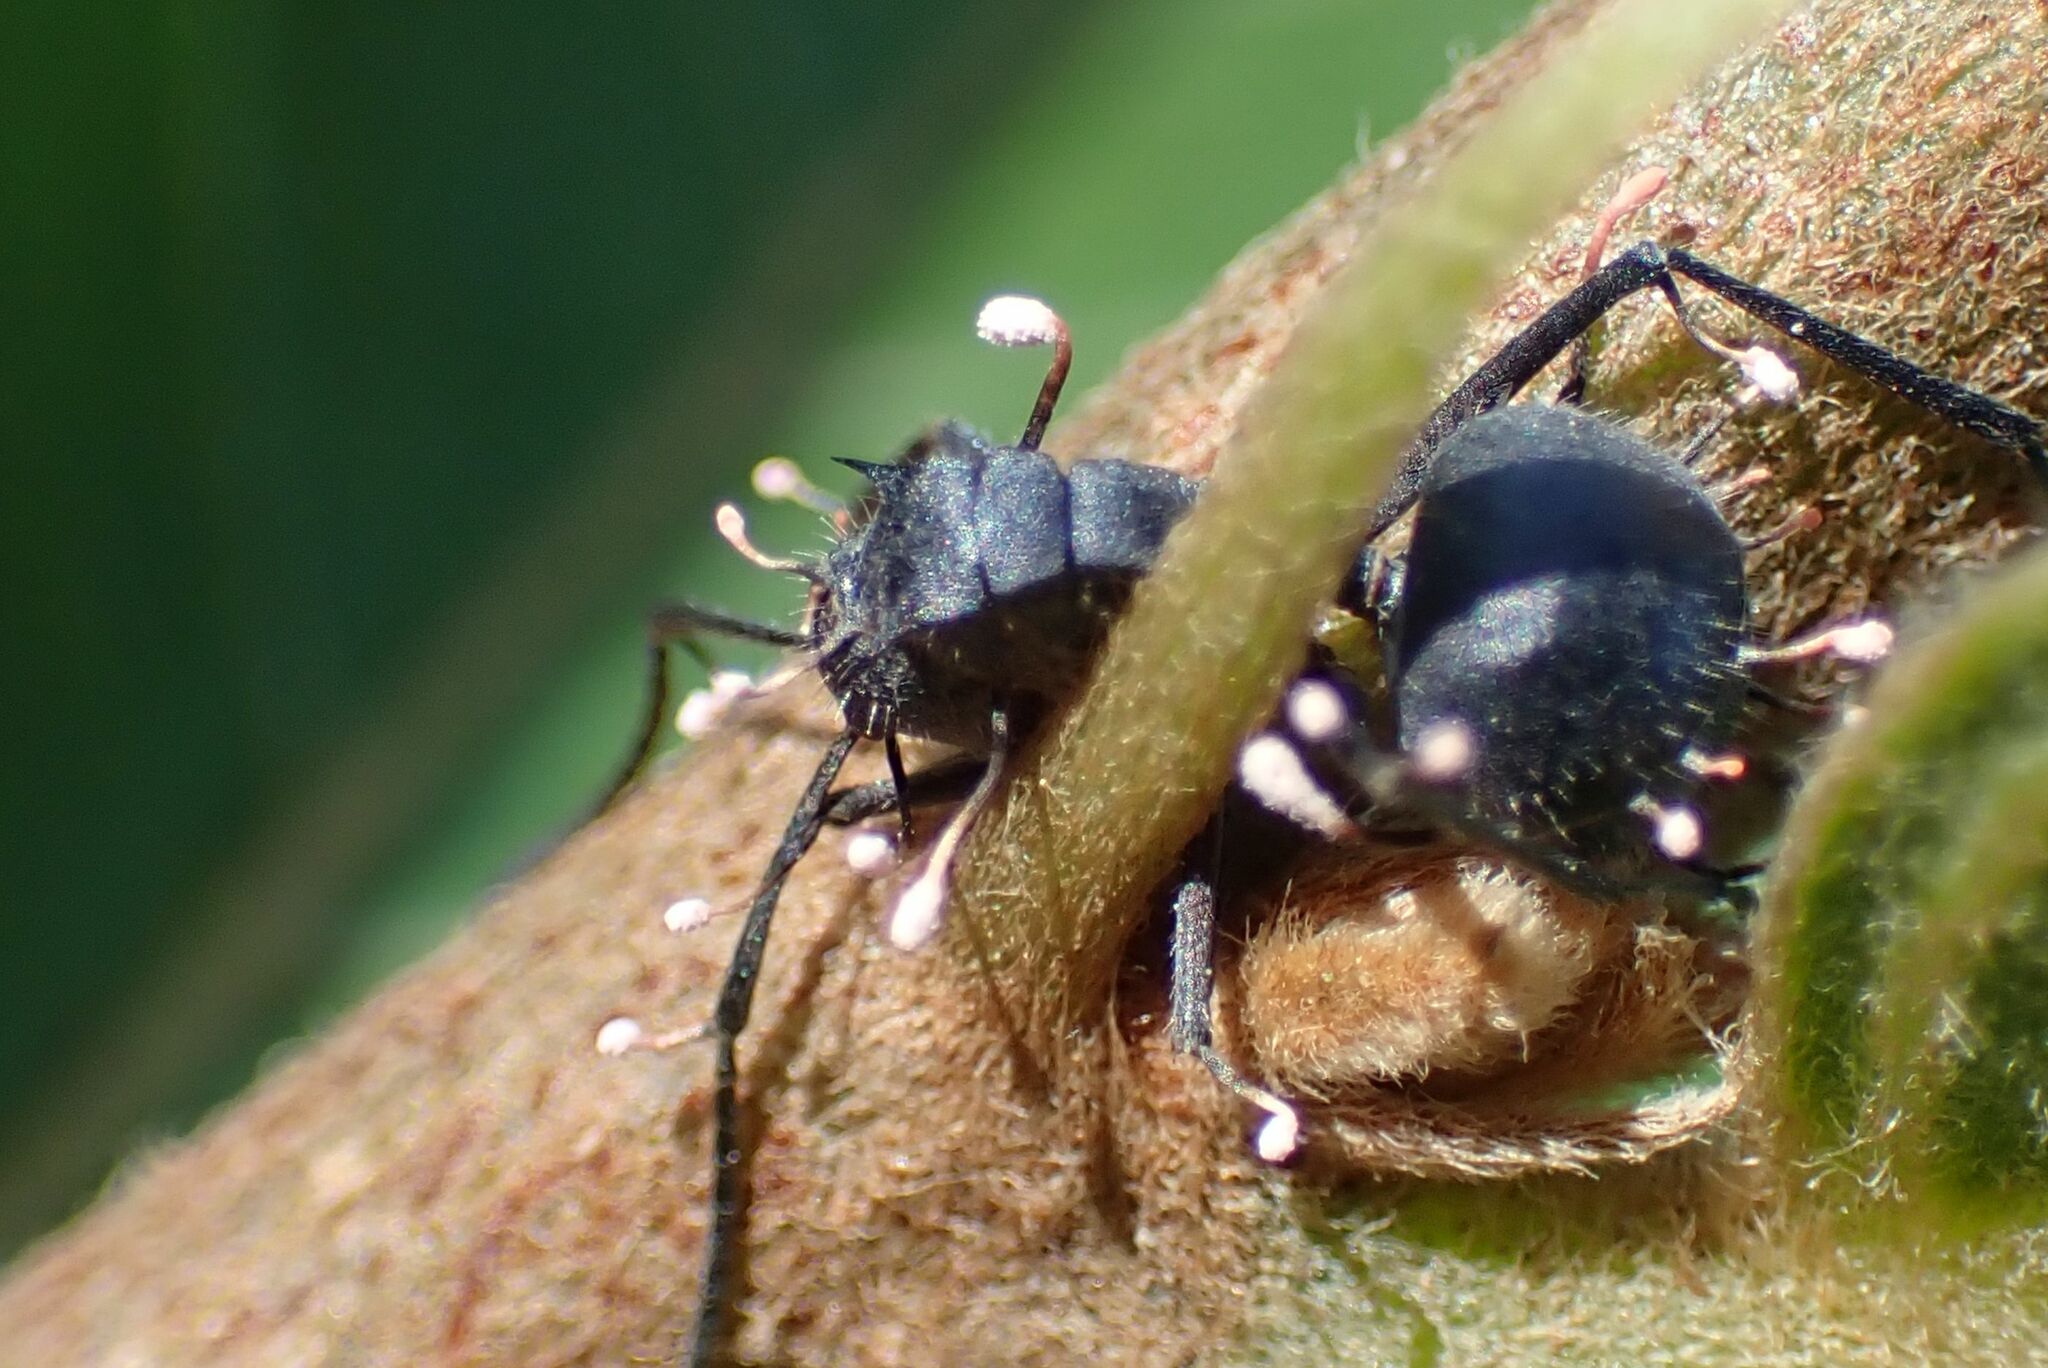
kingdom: Fungi
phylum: Ascomycota
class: Sordariomycetes
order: Hypocreales
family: Ophiocordycipitaceae
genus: Ophiocordyceps
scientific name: Ophiocordyceps buquetii
